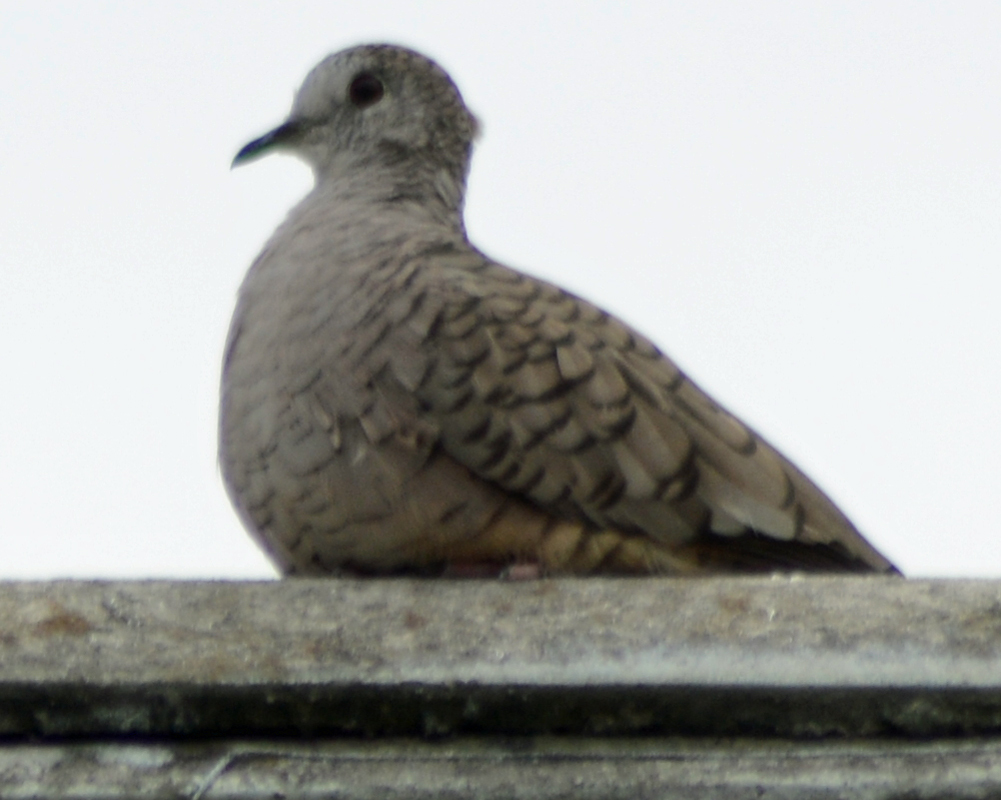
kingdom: Animalia
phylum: Chordata
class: Aves
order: Columbiformes
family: Columbidae
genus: Columbina
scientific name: Columbina inca
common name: Inca dove
